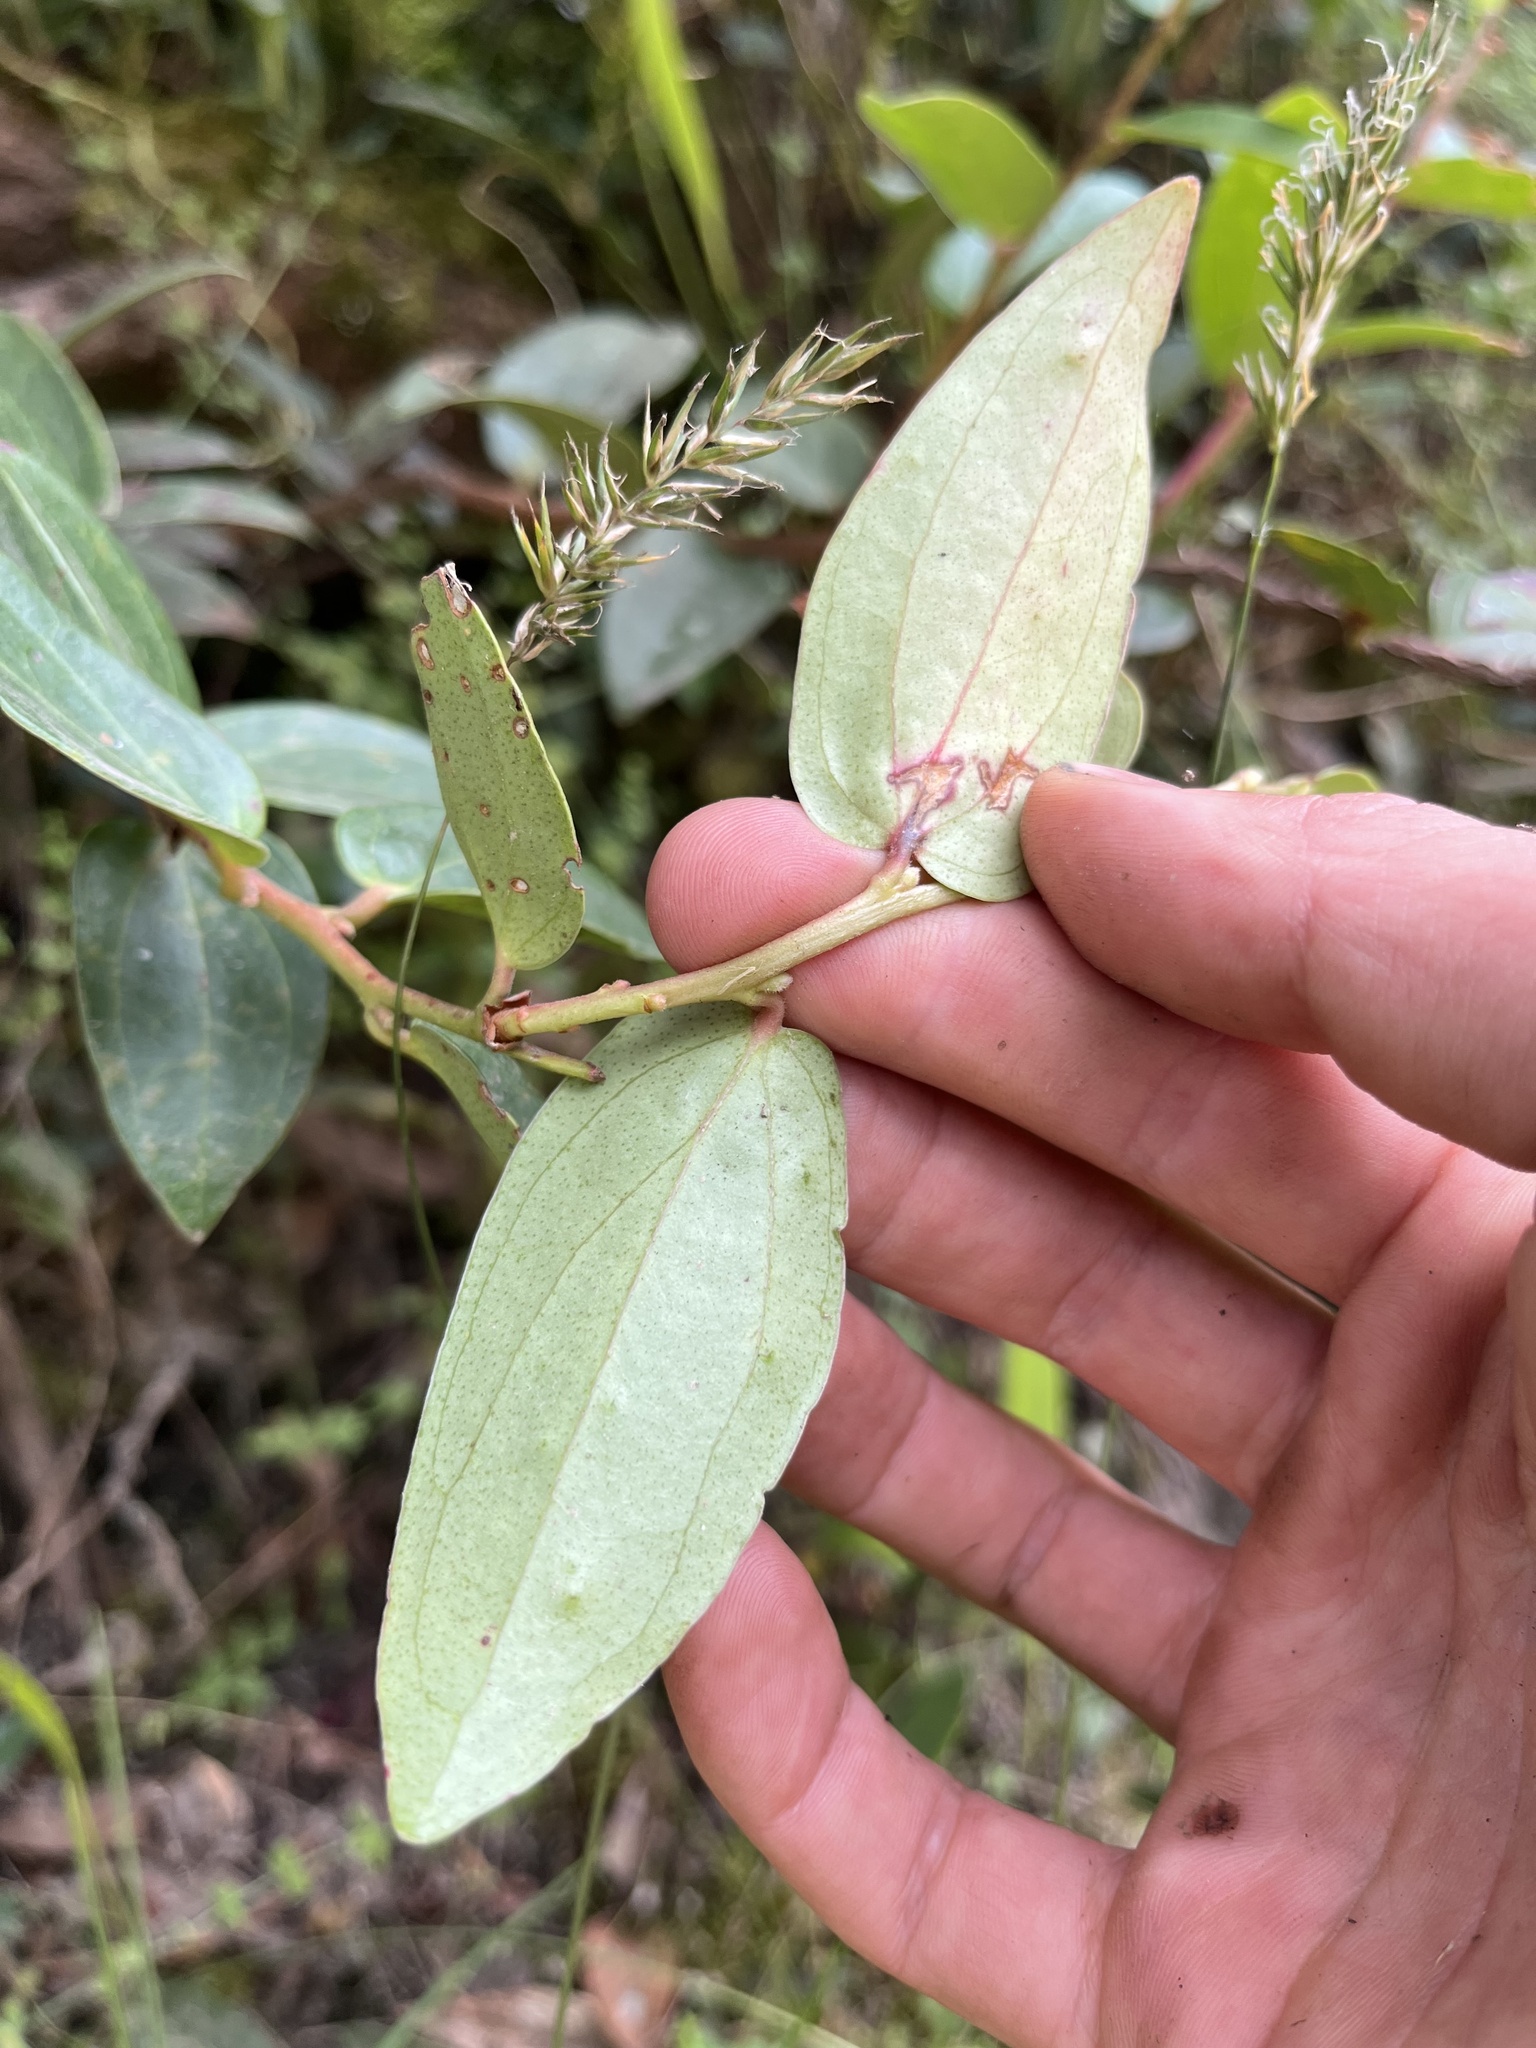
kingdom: Plantae
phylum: Tracheophyta
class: Magnoliopsida
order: Ericales
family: Ericaceae
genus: Cavendishia
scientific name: Cavendishia bracteata
